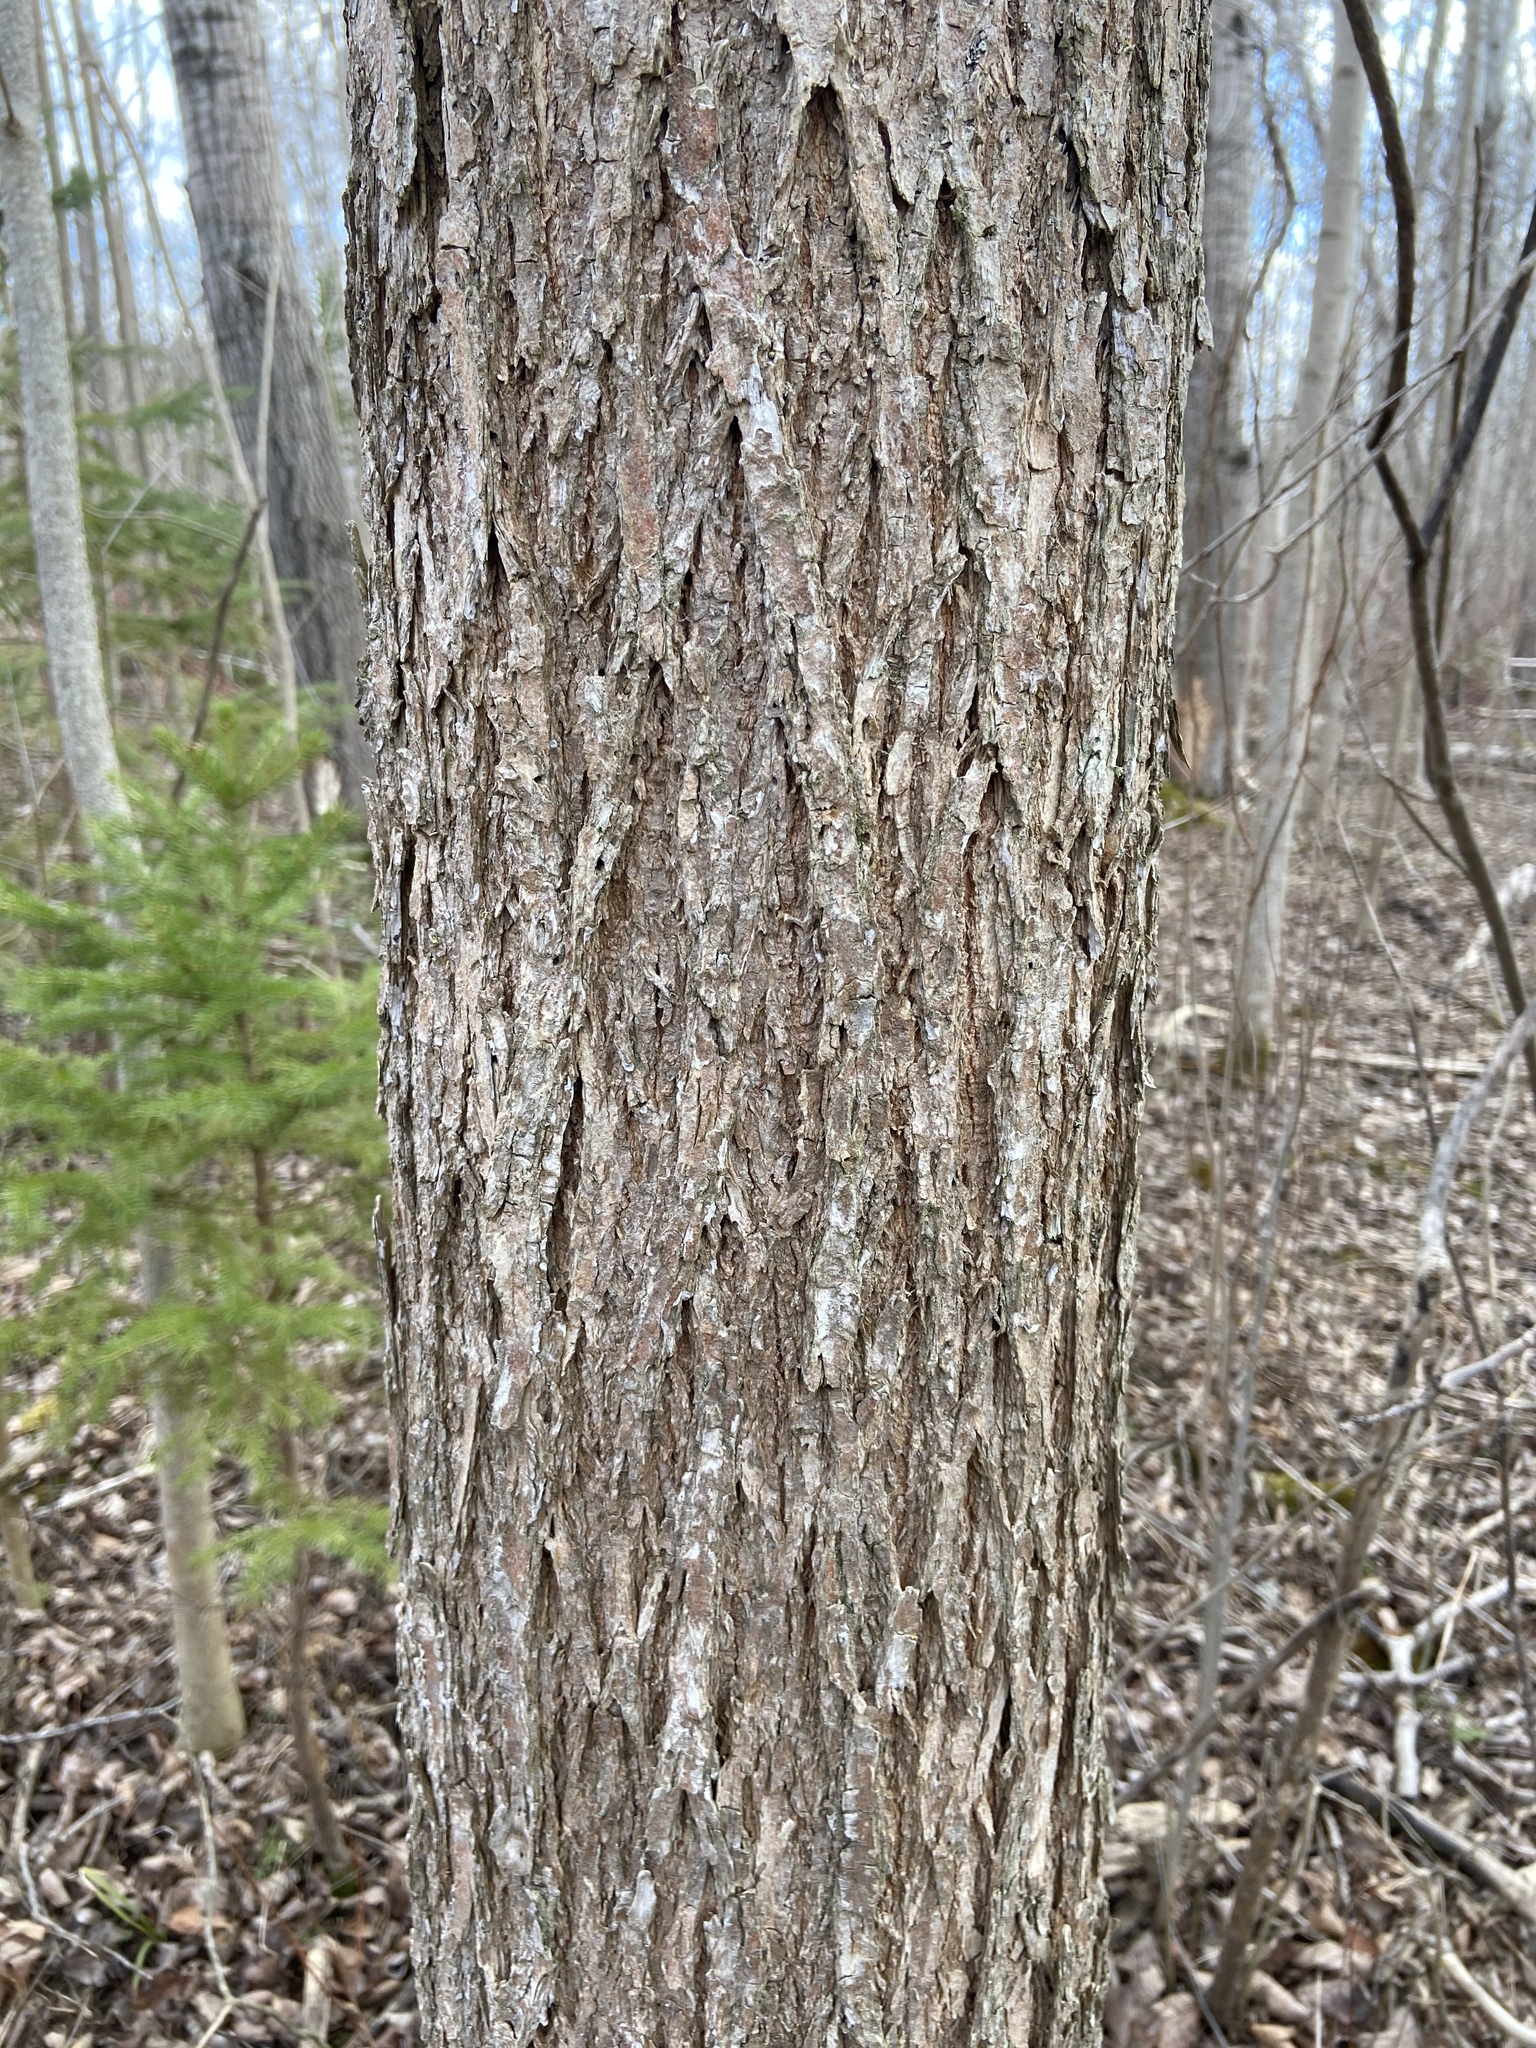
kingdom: Plantae
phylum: Tracheophyta
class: Magnoliopsida
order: Rosales
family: Ulmaceae
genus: Ulmus
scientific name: Ulmus americana
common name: American elm
